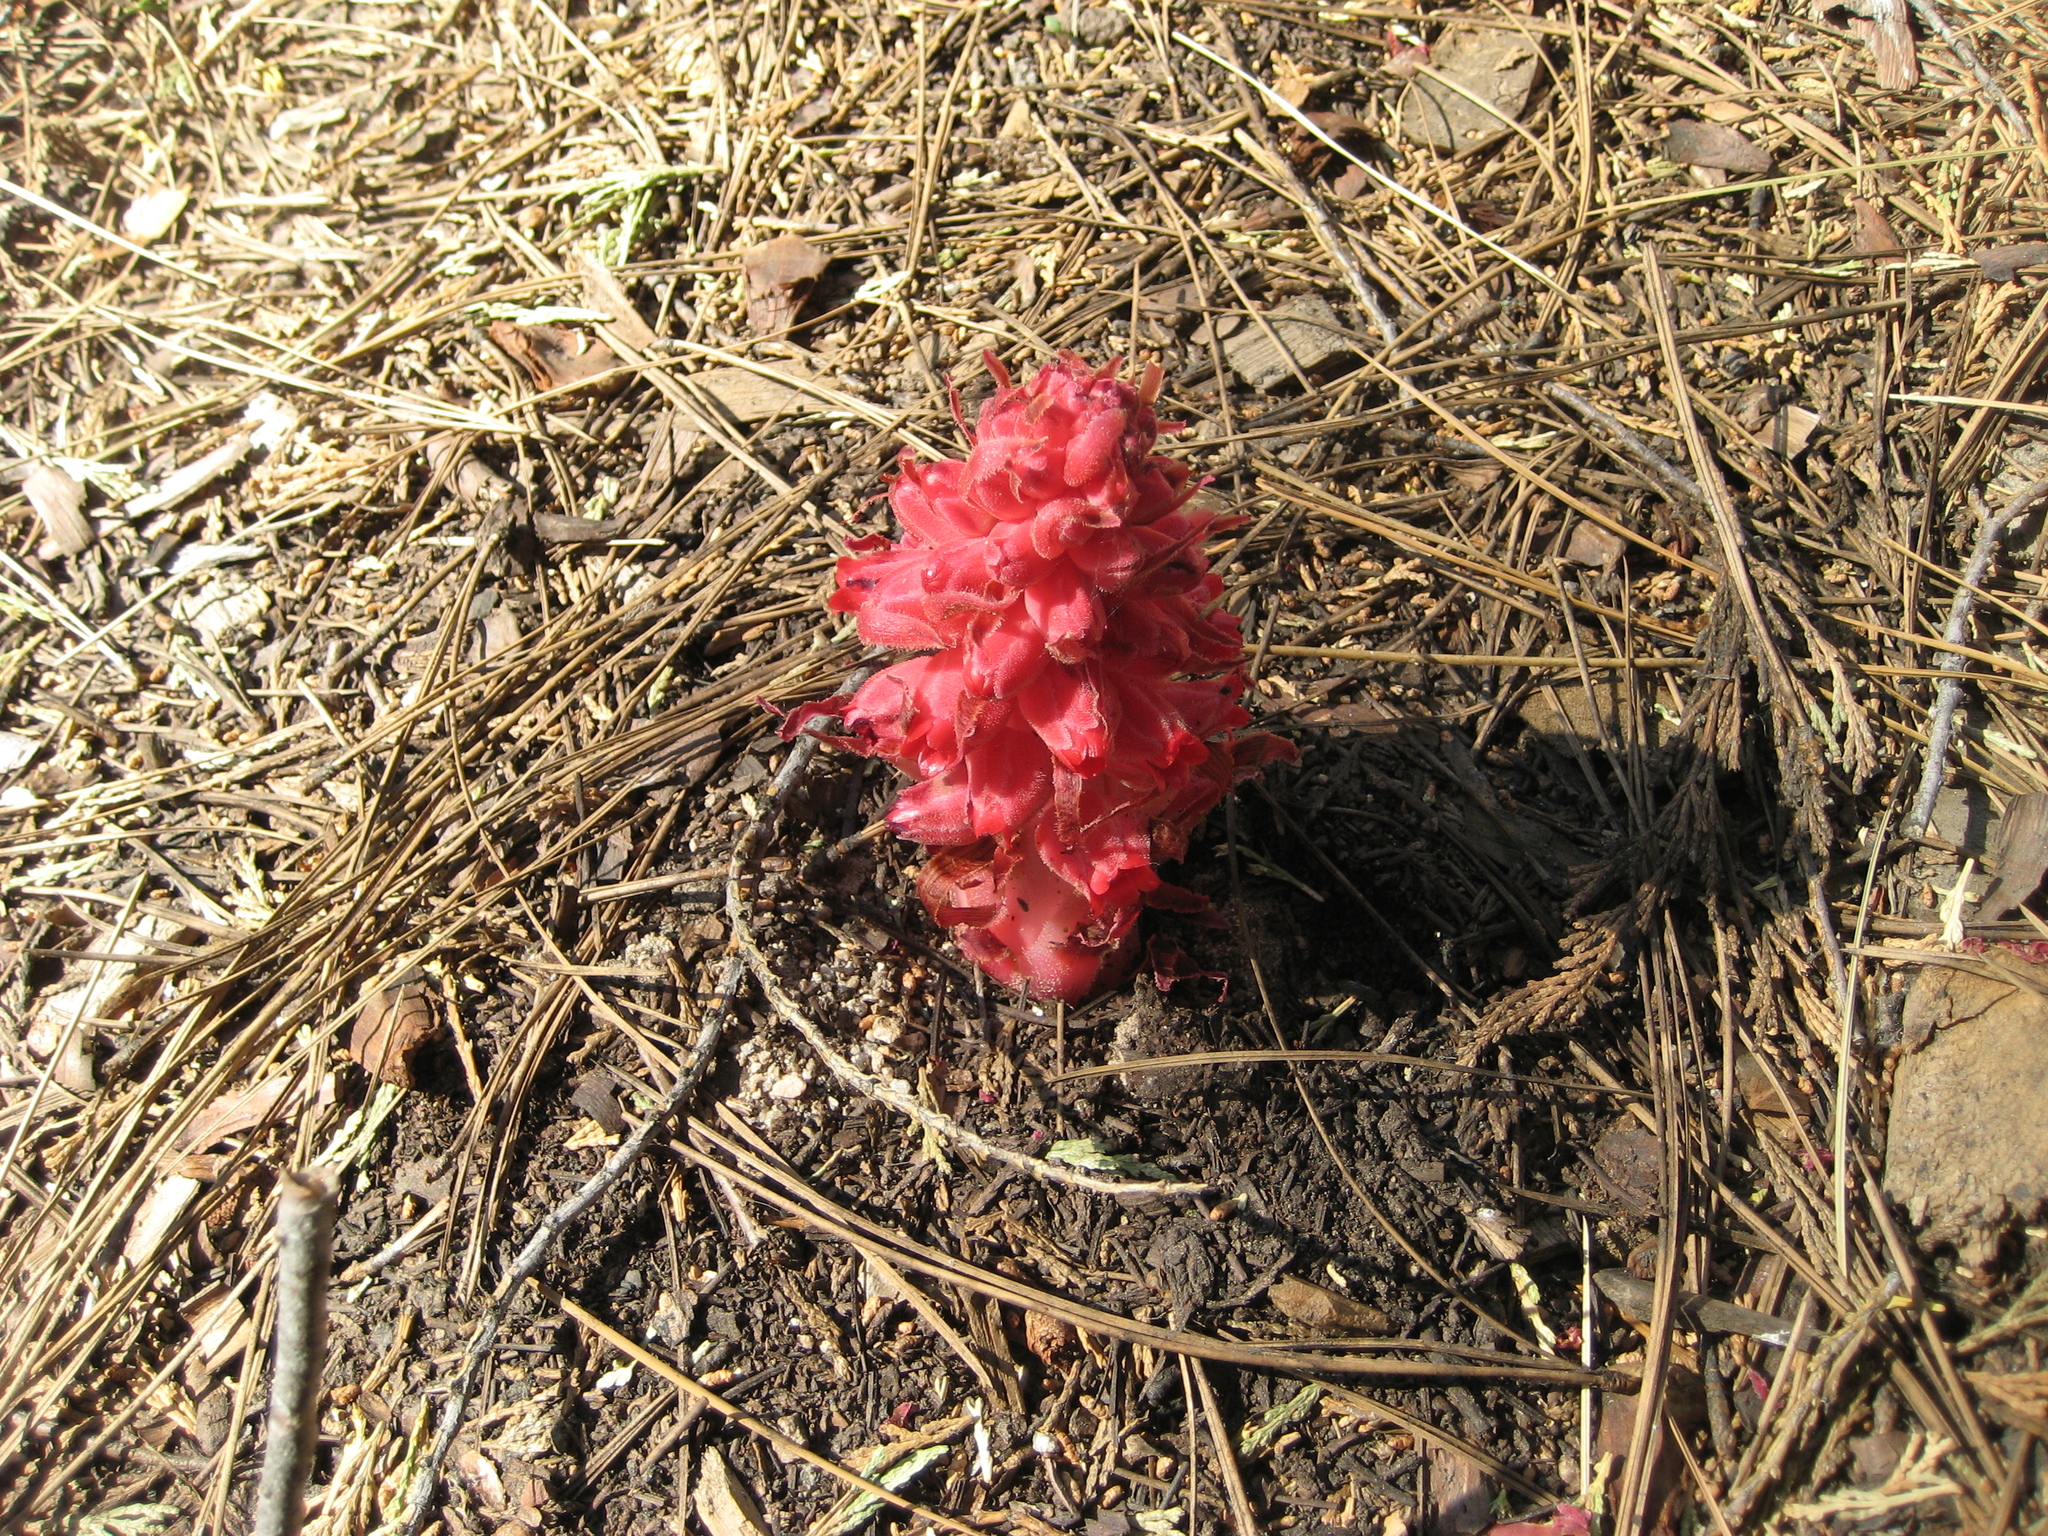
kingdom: Plantae
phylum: Tracheophyta
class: Magnoliopsida
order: Ericales
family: Ericaceae
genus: Sarcodes
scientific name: Sarcodes sanguinea
